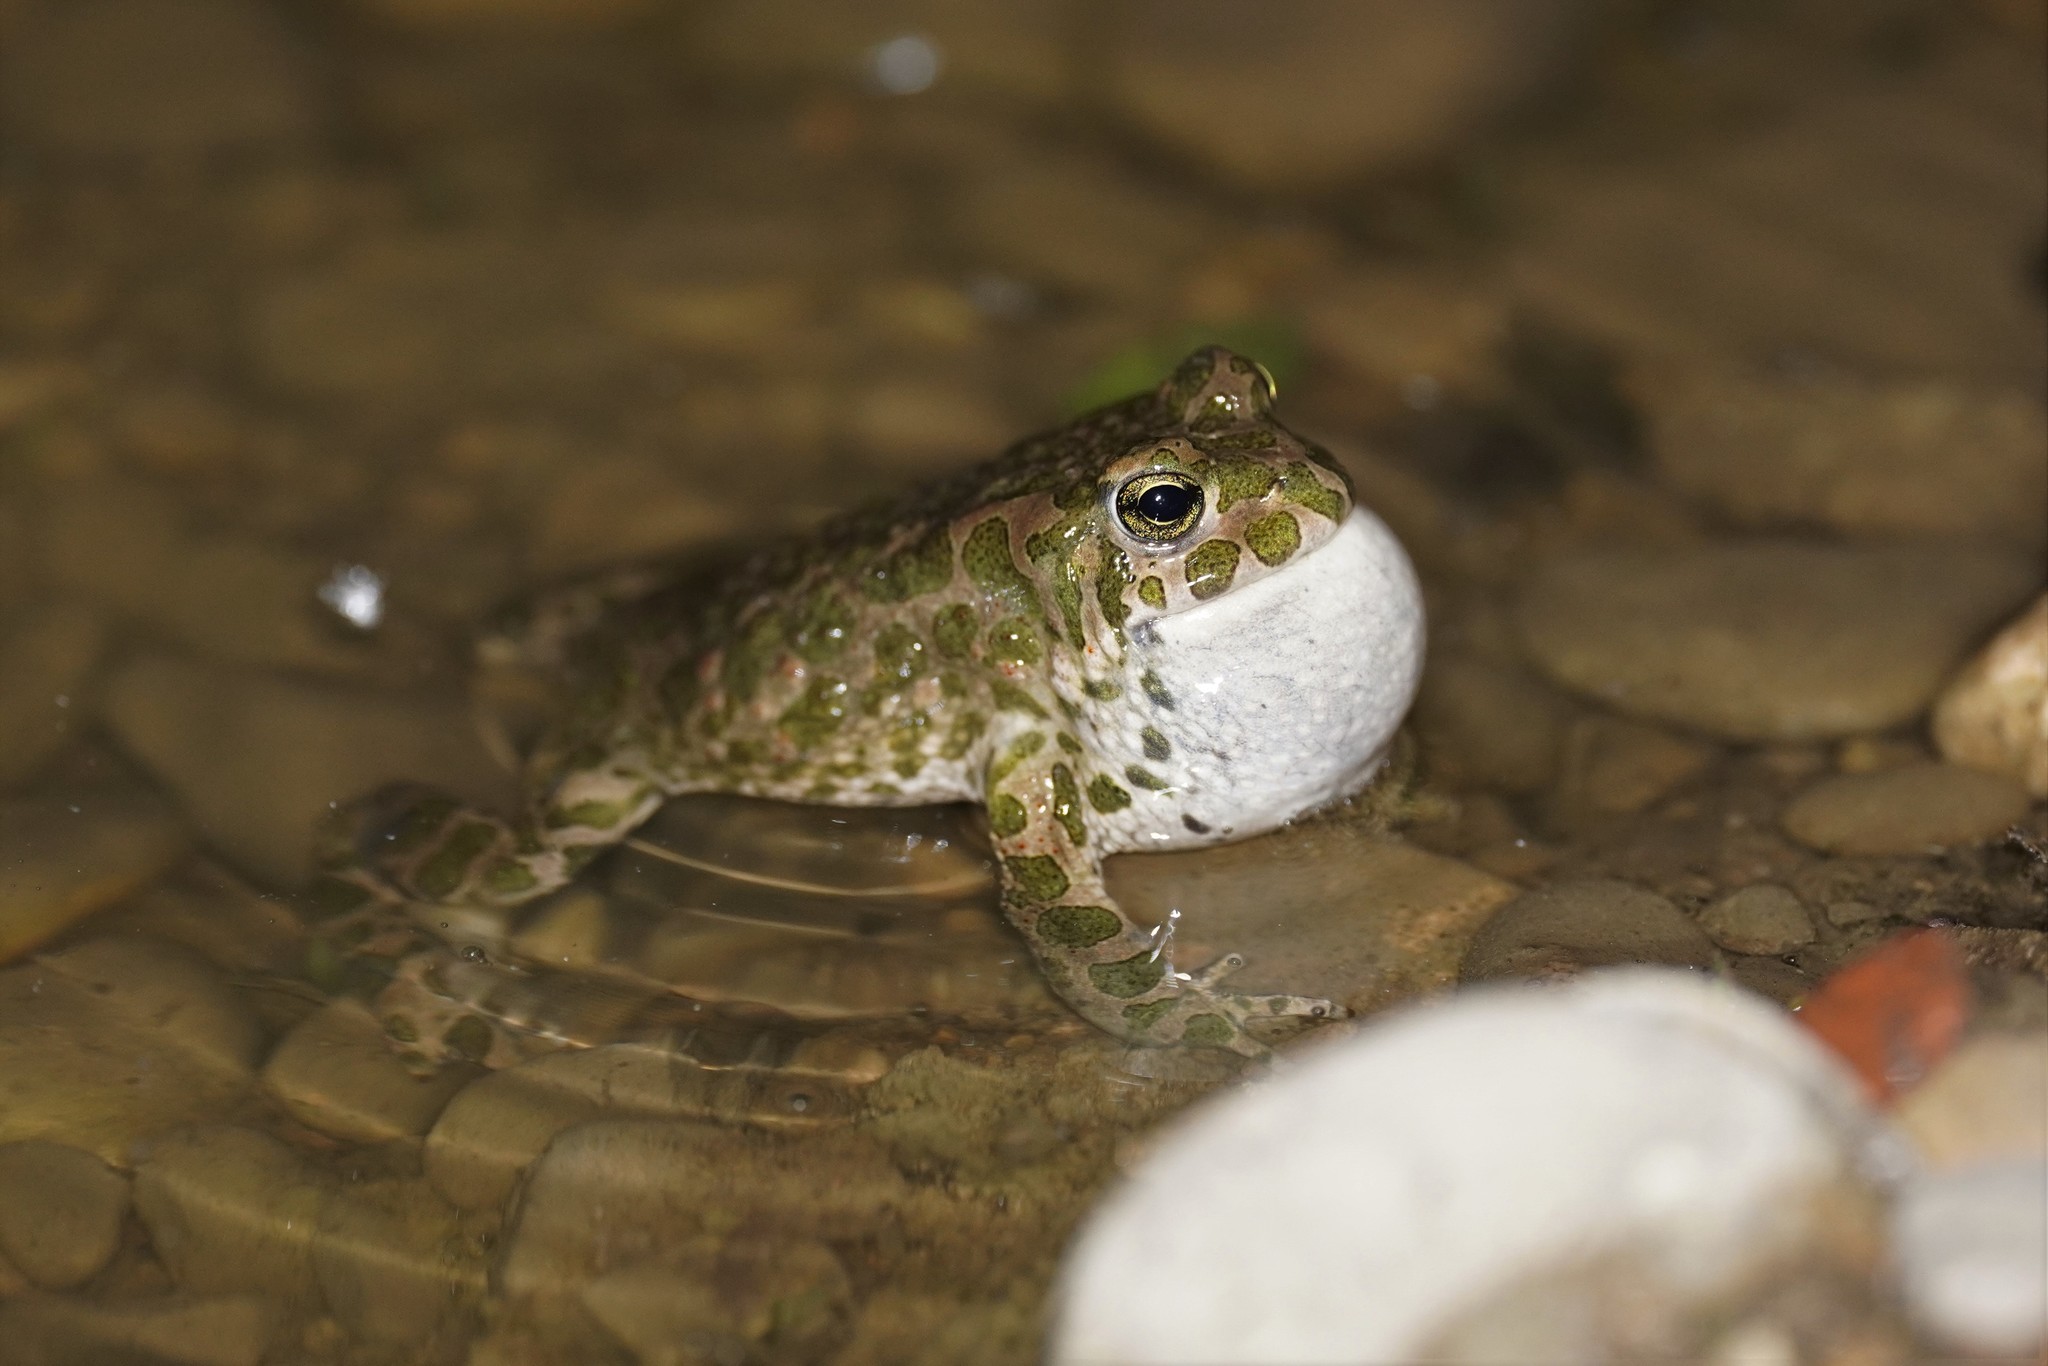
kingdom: Animalia
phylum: Chordata
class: Amphibia
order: Anura
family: Bufonidae
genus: Bufotes
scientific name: Bufotes viridis
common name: European green toad
